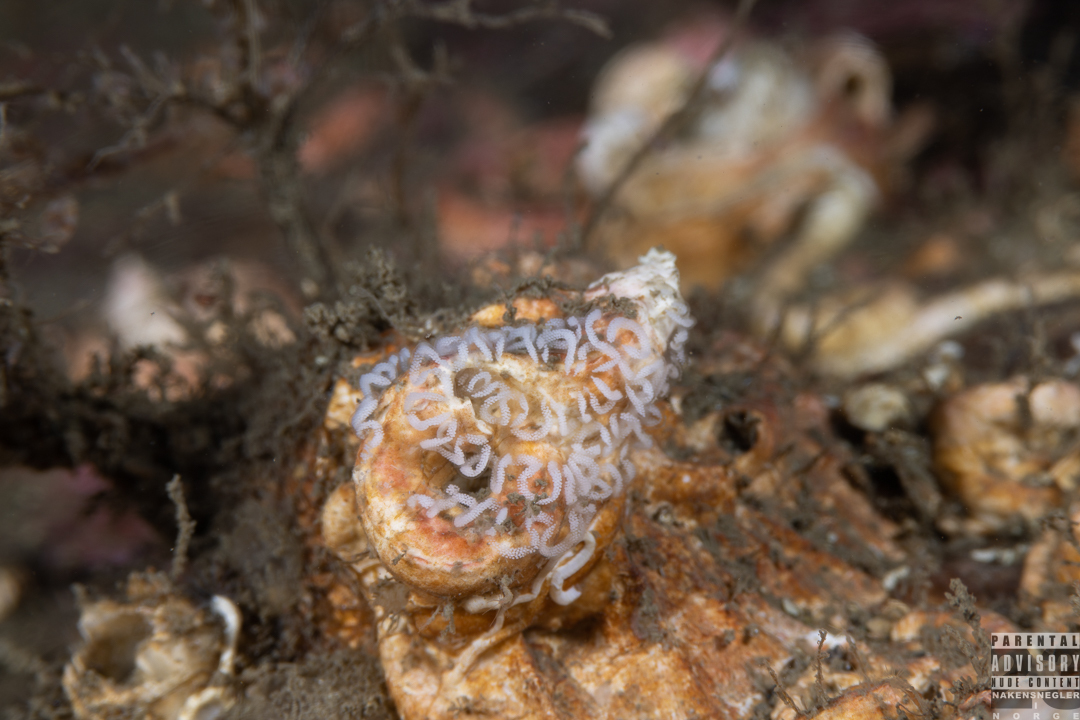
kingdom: Animalia
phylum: Mollusca
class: Gastropoda
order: Nudibranchia
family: Coryphellidae
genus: Coryphella
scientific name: Coryphella nobilis
